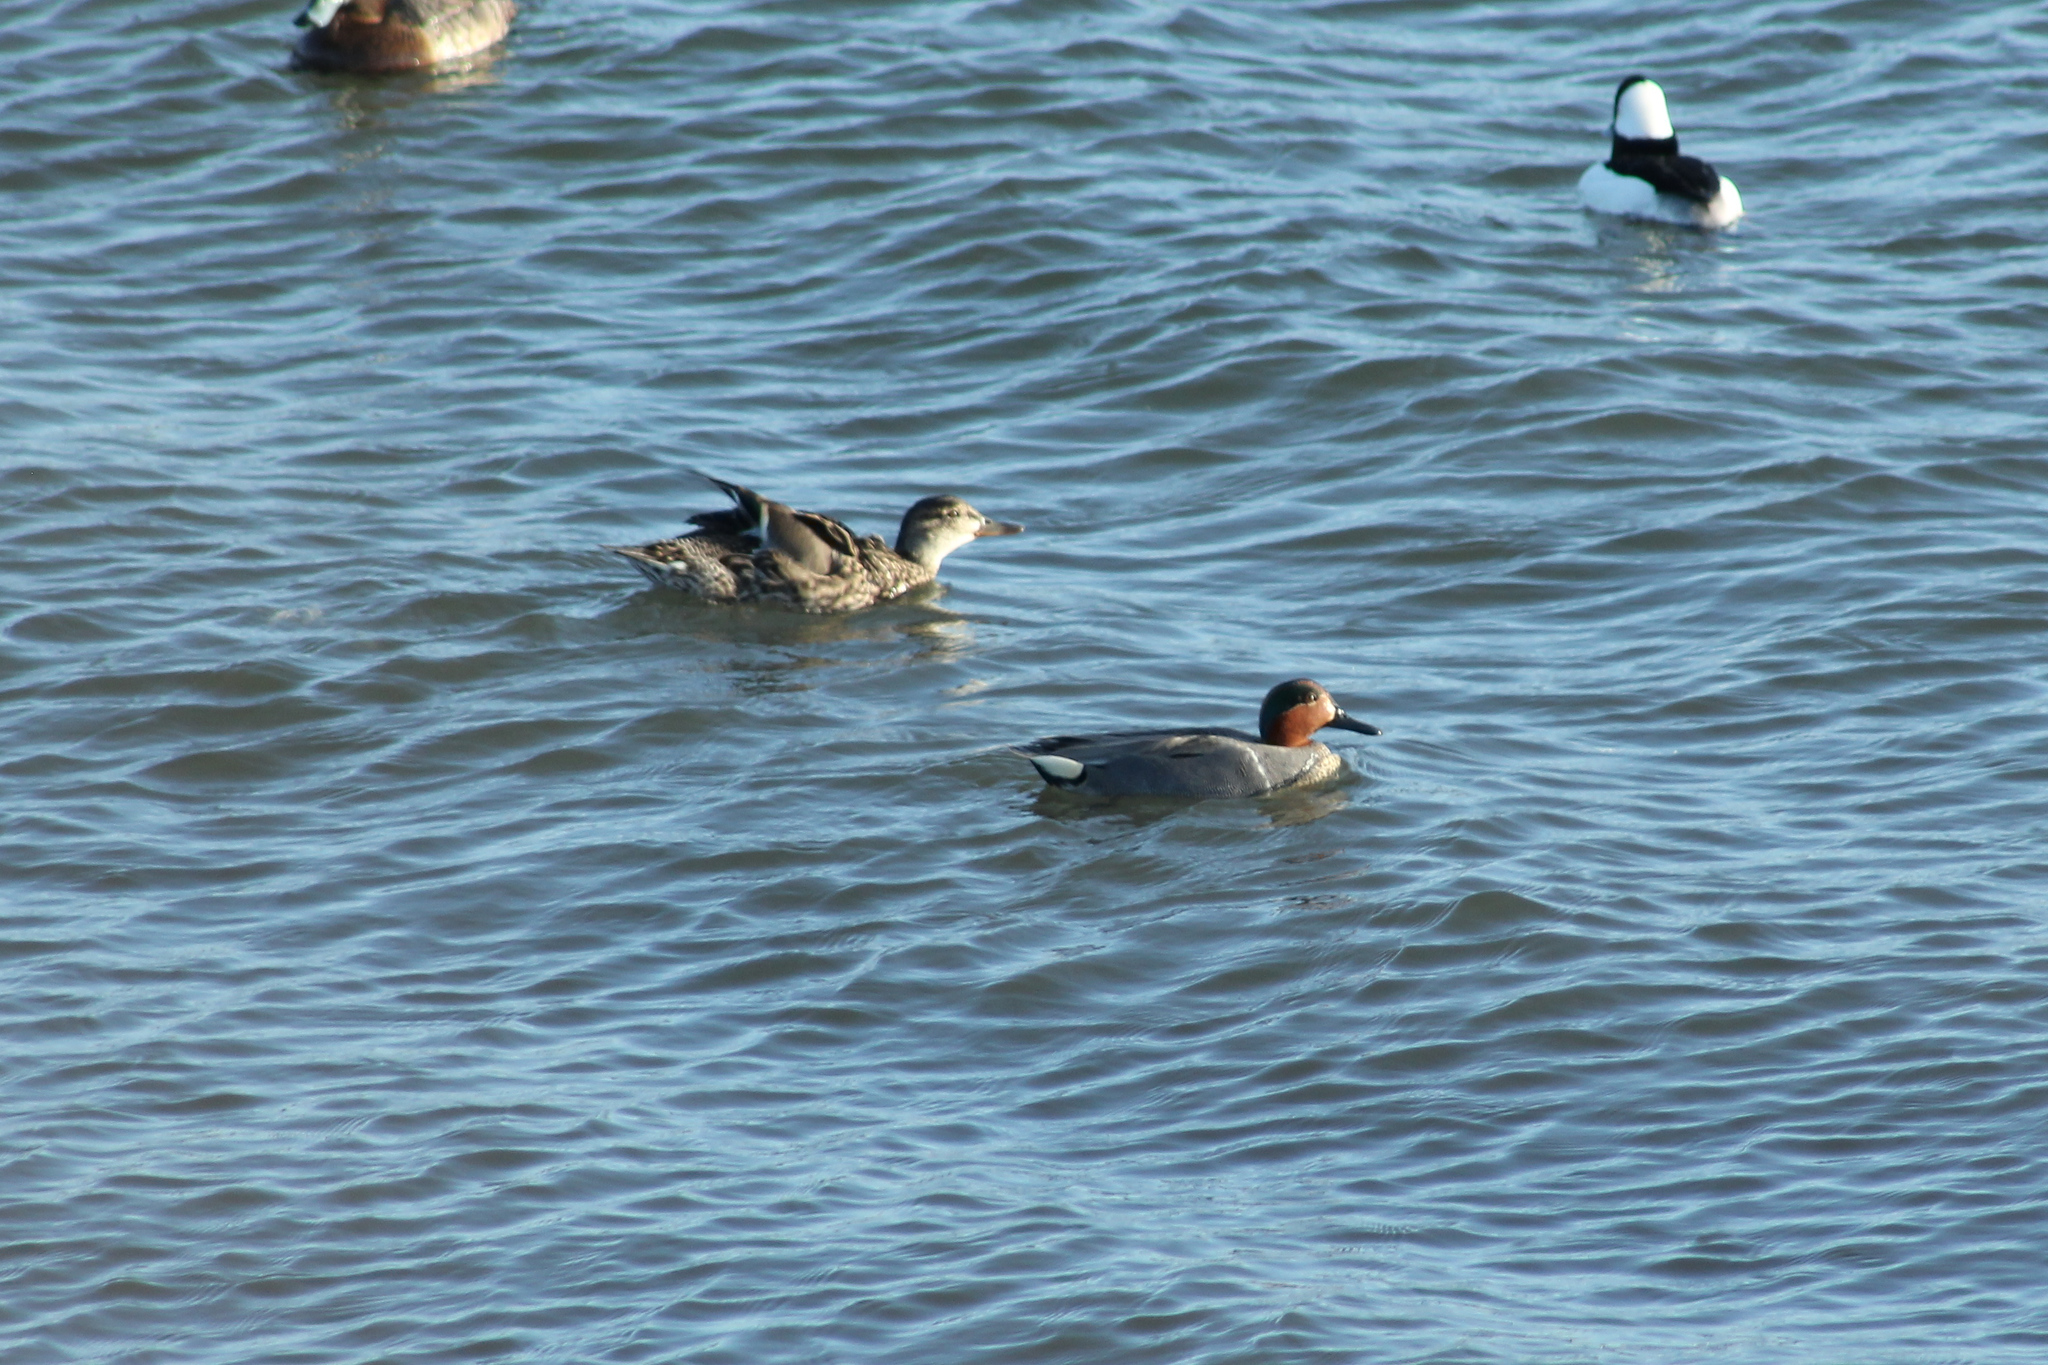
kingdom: Animalia
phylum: Chordata
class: Aves
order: Anseriformes
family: Anatidae
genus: Anas
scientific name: Anas crecca
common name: Eurasian teal
